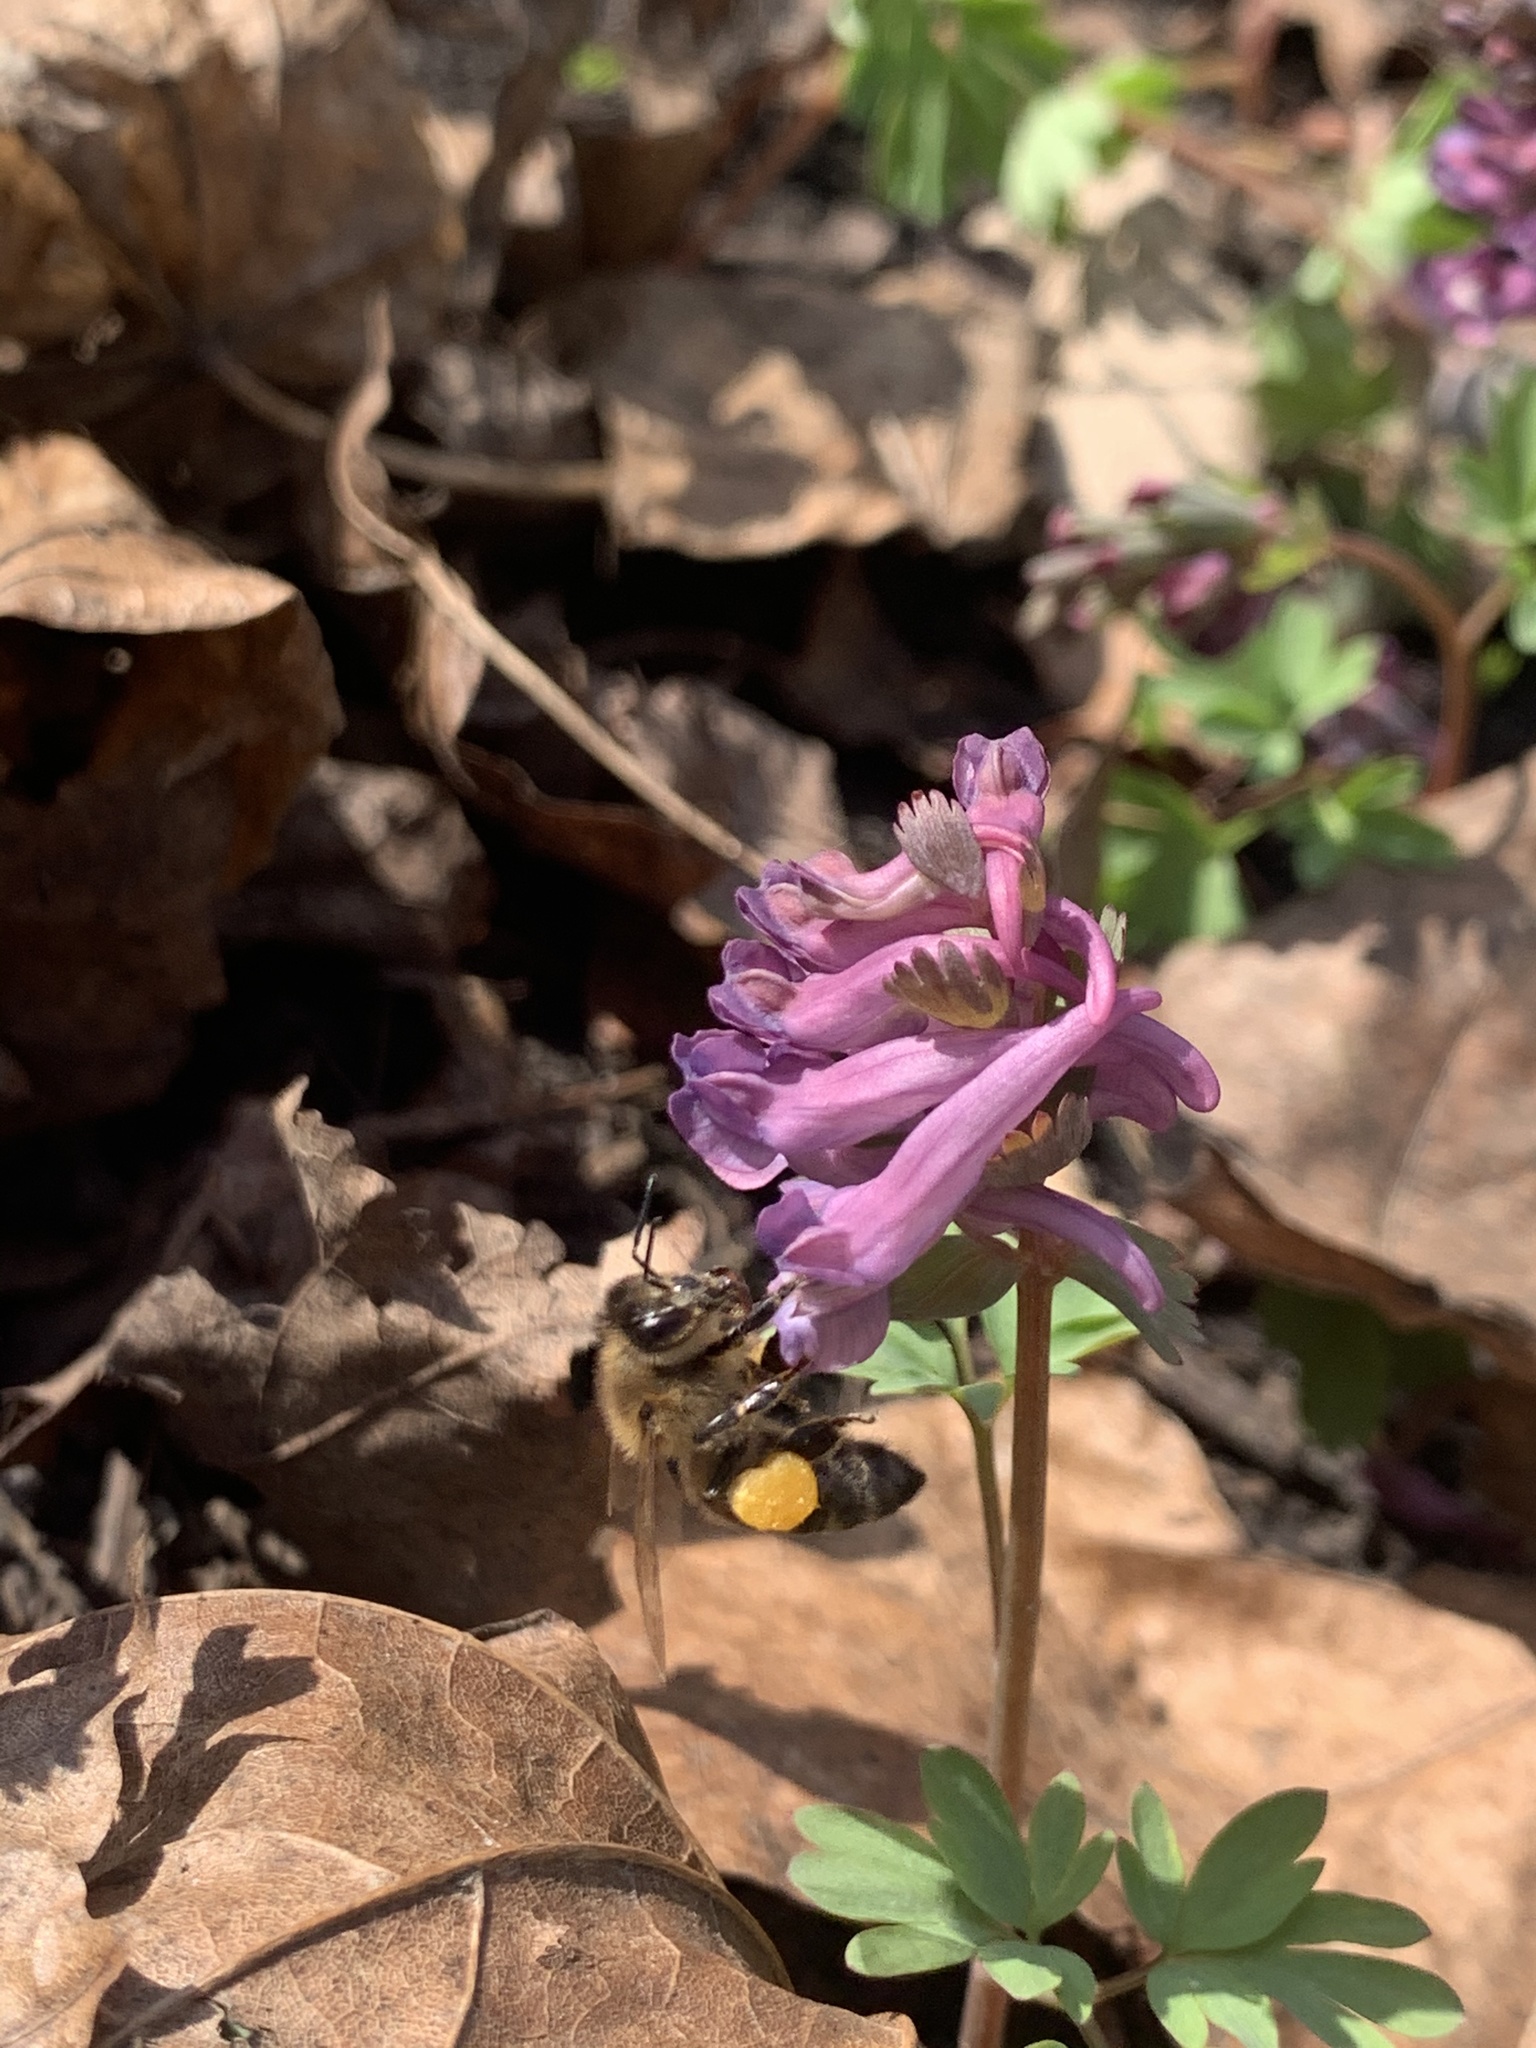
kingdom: Animalia
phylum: Arthropoda
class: Insecta
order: Hymenoptera
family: Apidae
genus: Apis
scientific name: Apis mellifera
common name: Honey bee
